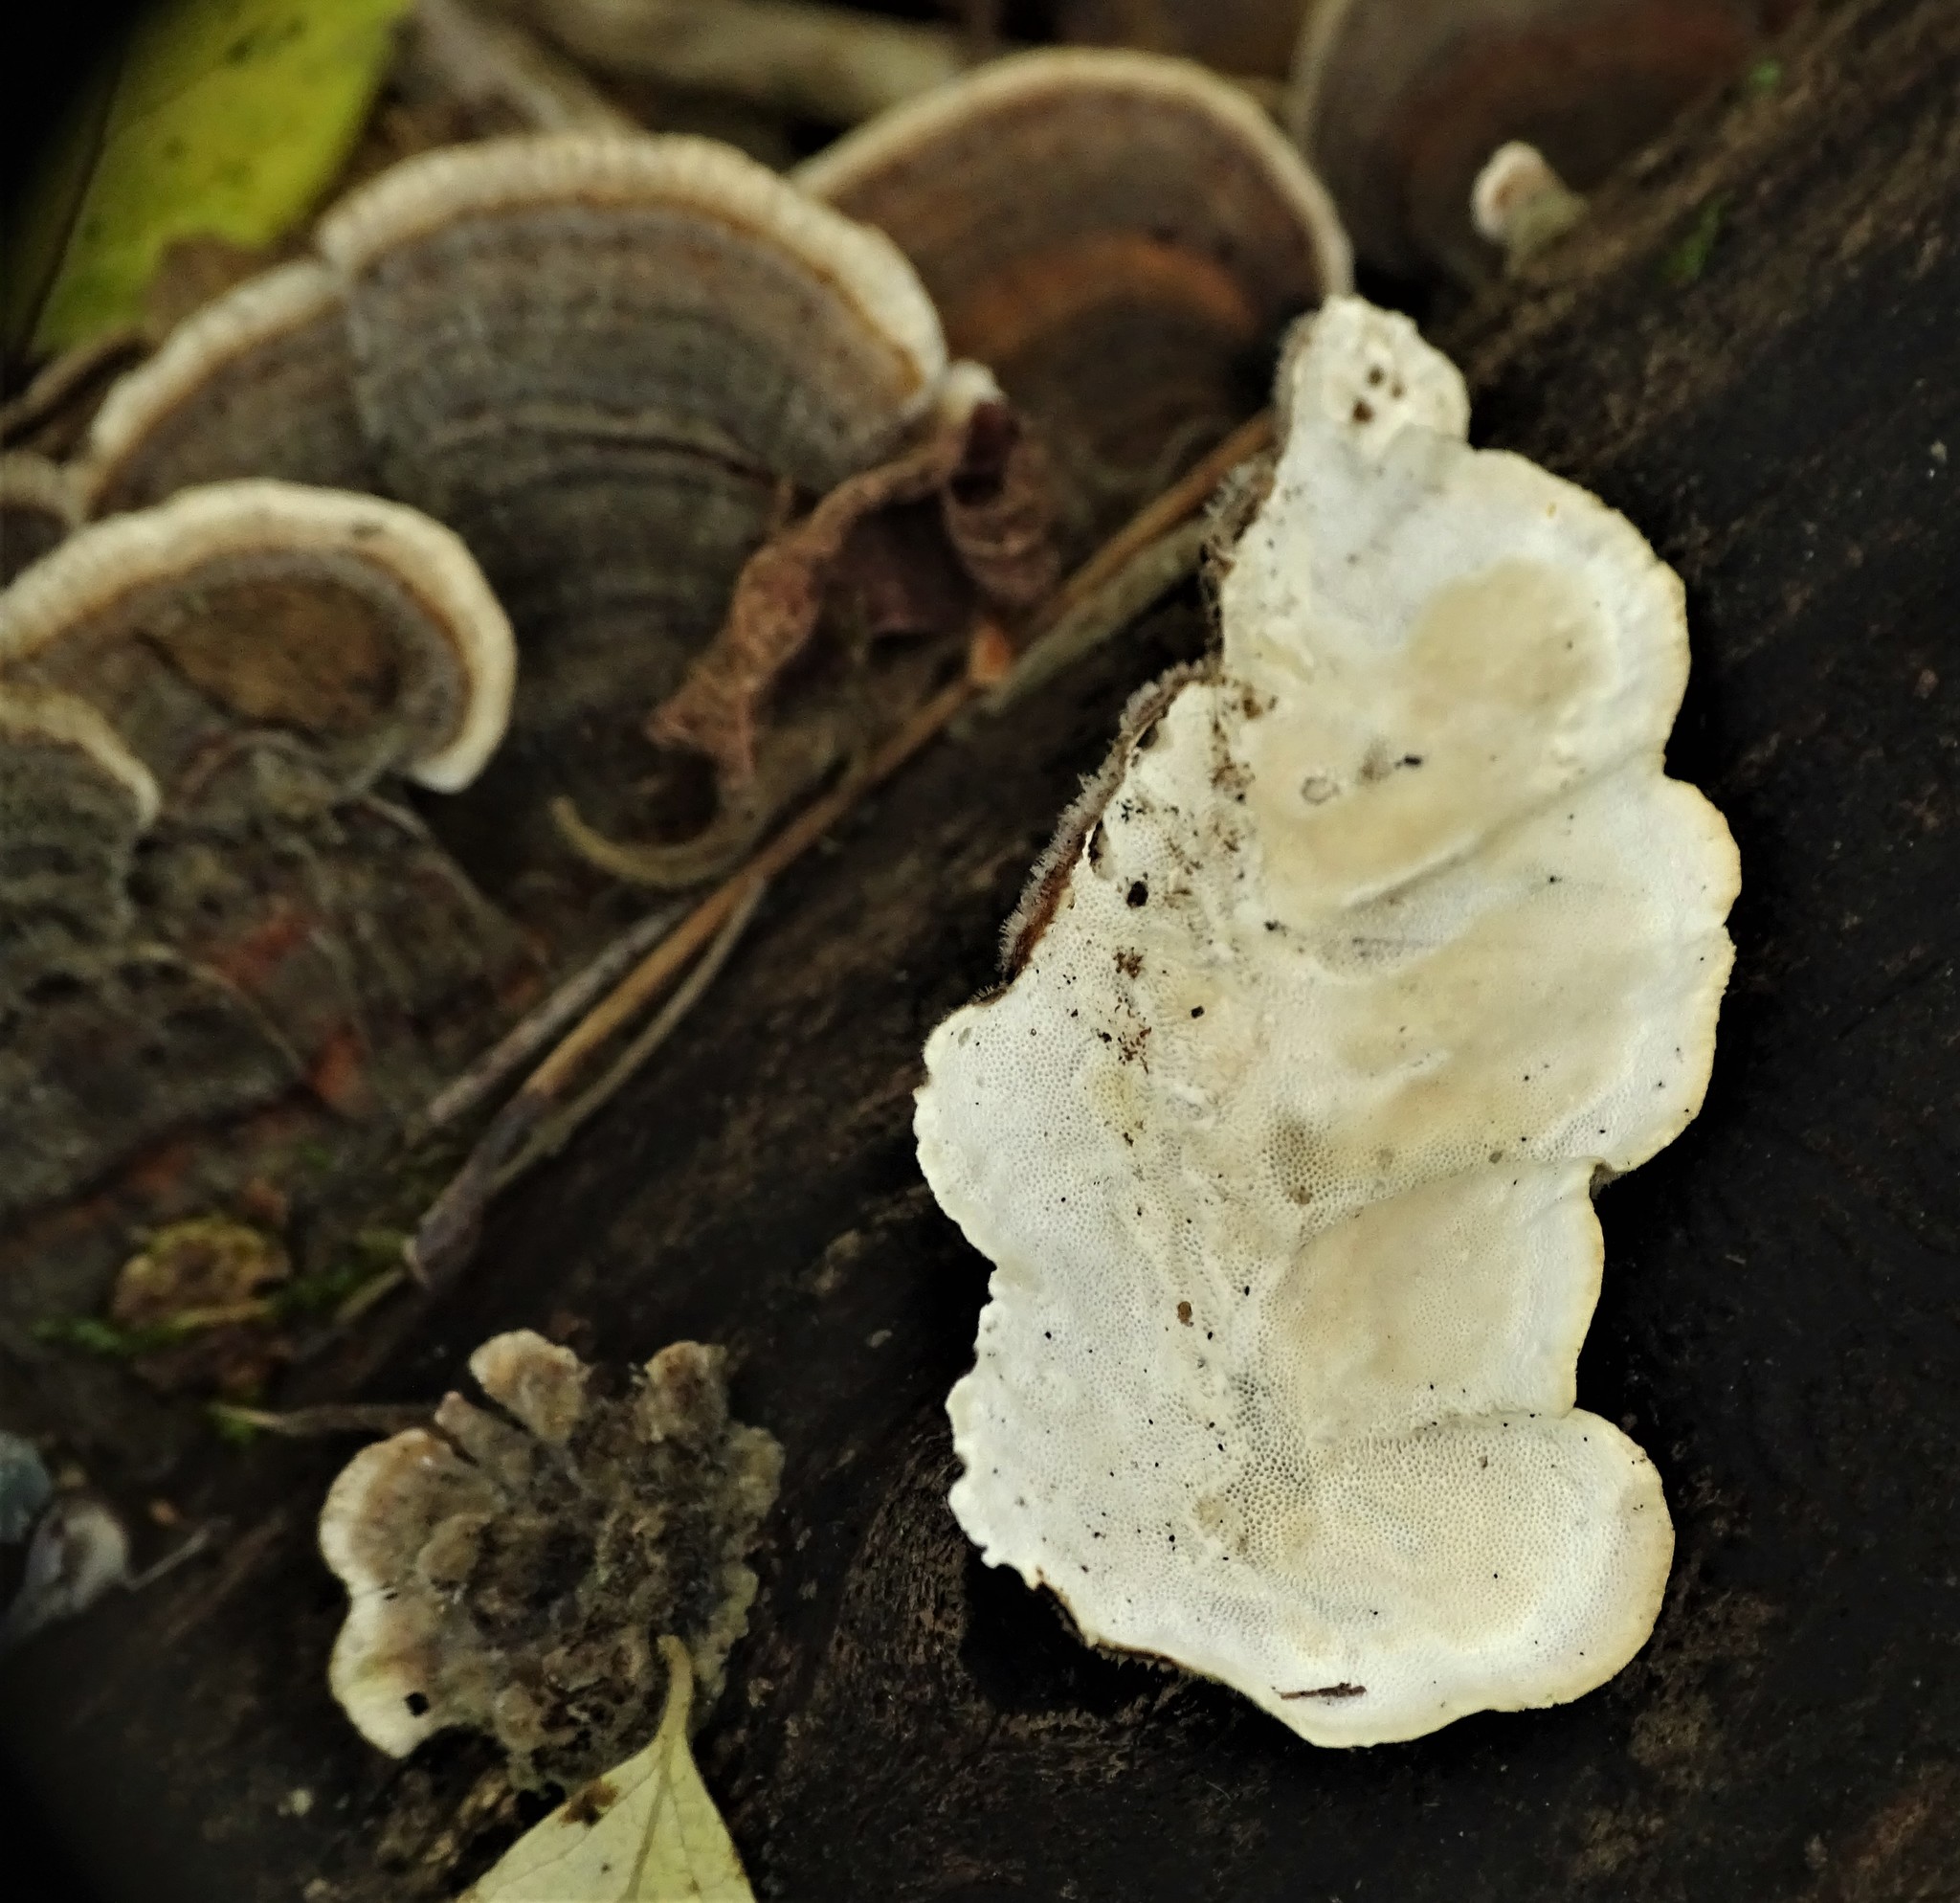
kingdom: Fungi
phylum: Basidiomycota
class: Agaricomycetes
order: Polyporales
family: Polyporaceae
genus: Trametes
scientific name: Trametes versicolor
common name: Turkeytail
